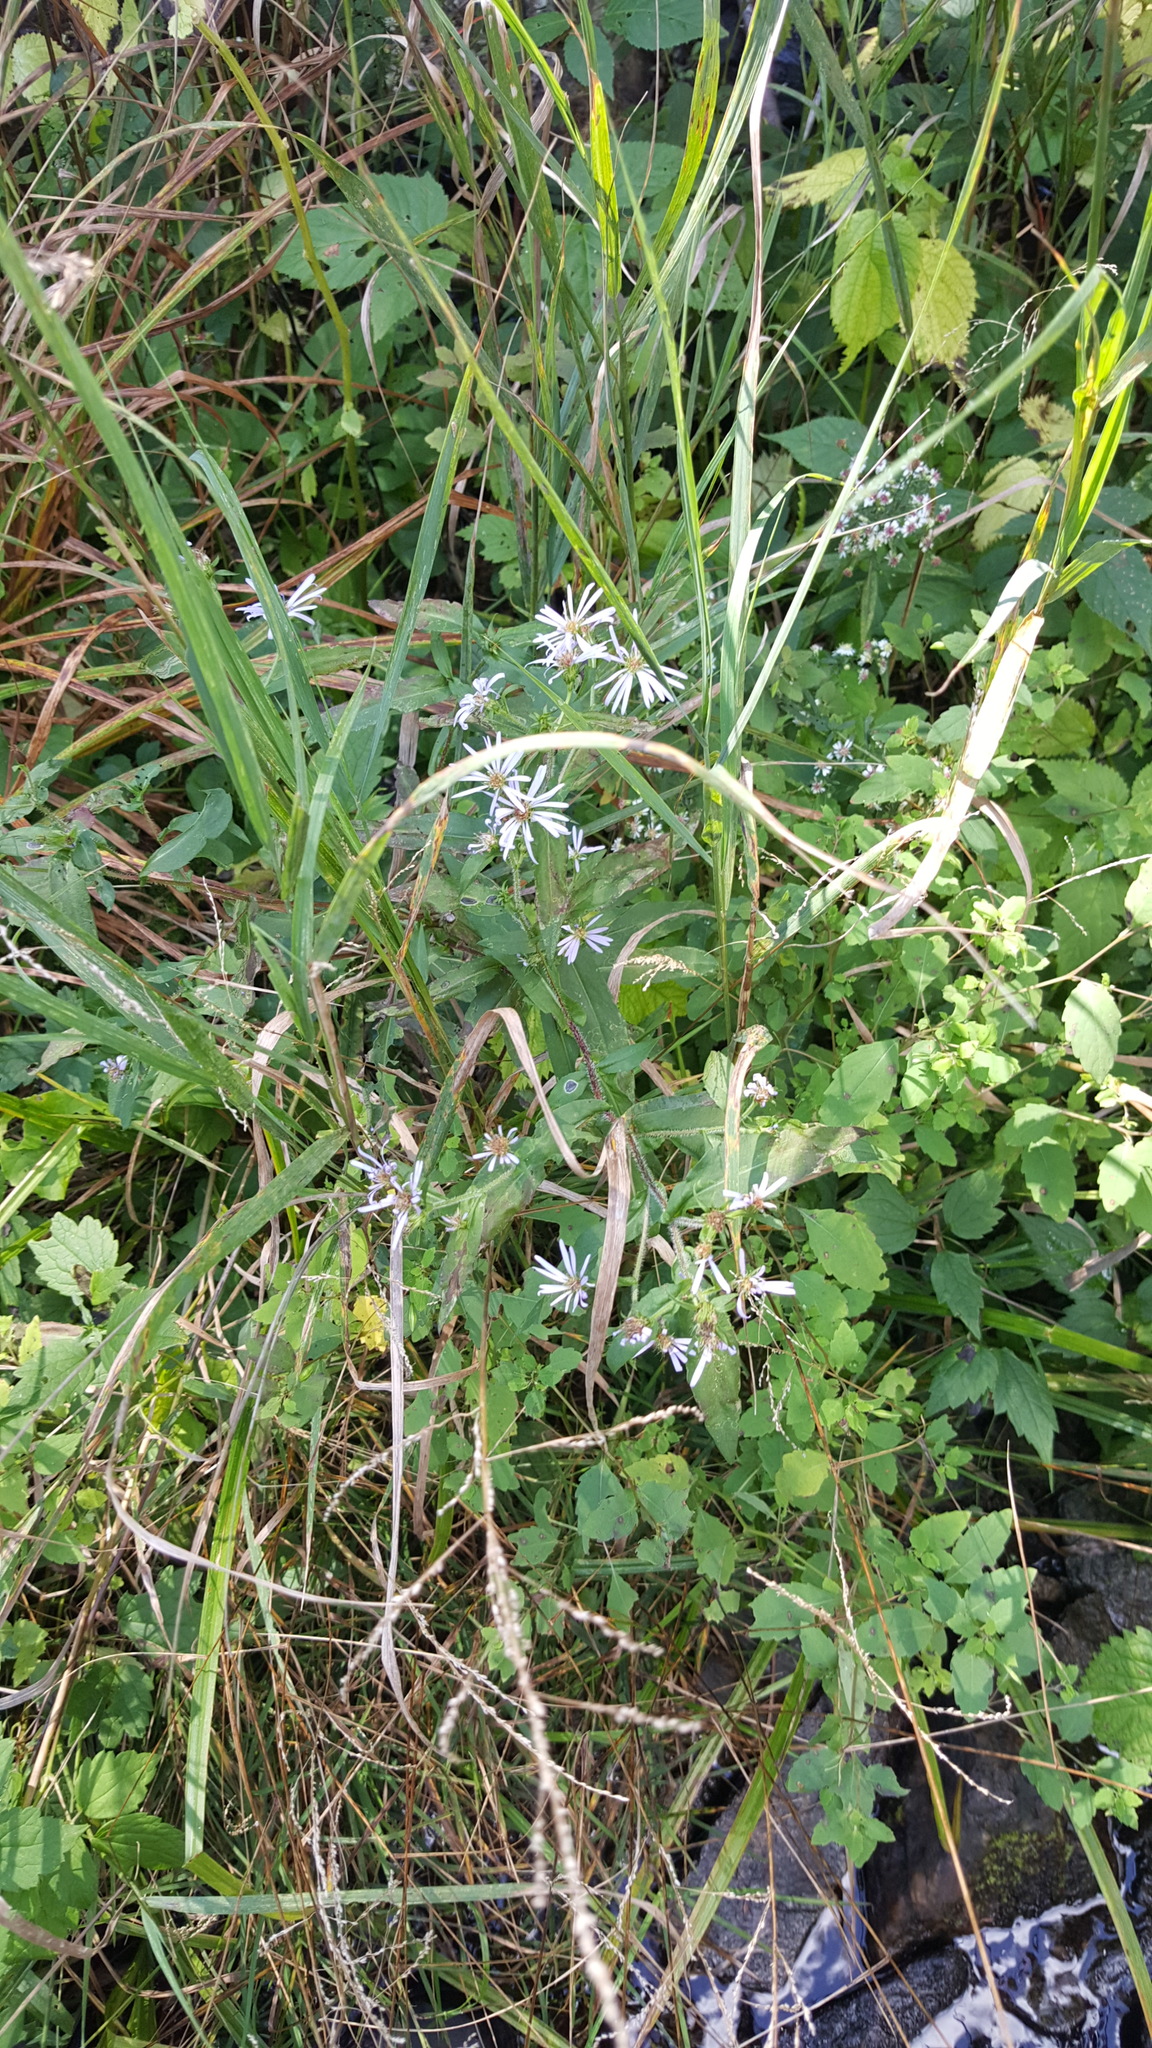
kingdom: Plantae
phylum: Tracheophyta
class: Magnoliopsida
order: Asterales
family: Asteraceae
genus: Symphyotrichum
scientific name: Symphyotrichum puniceum
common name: Bog aster
